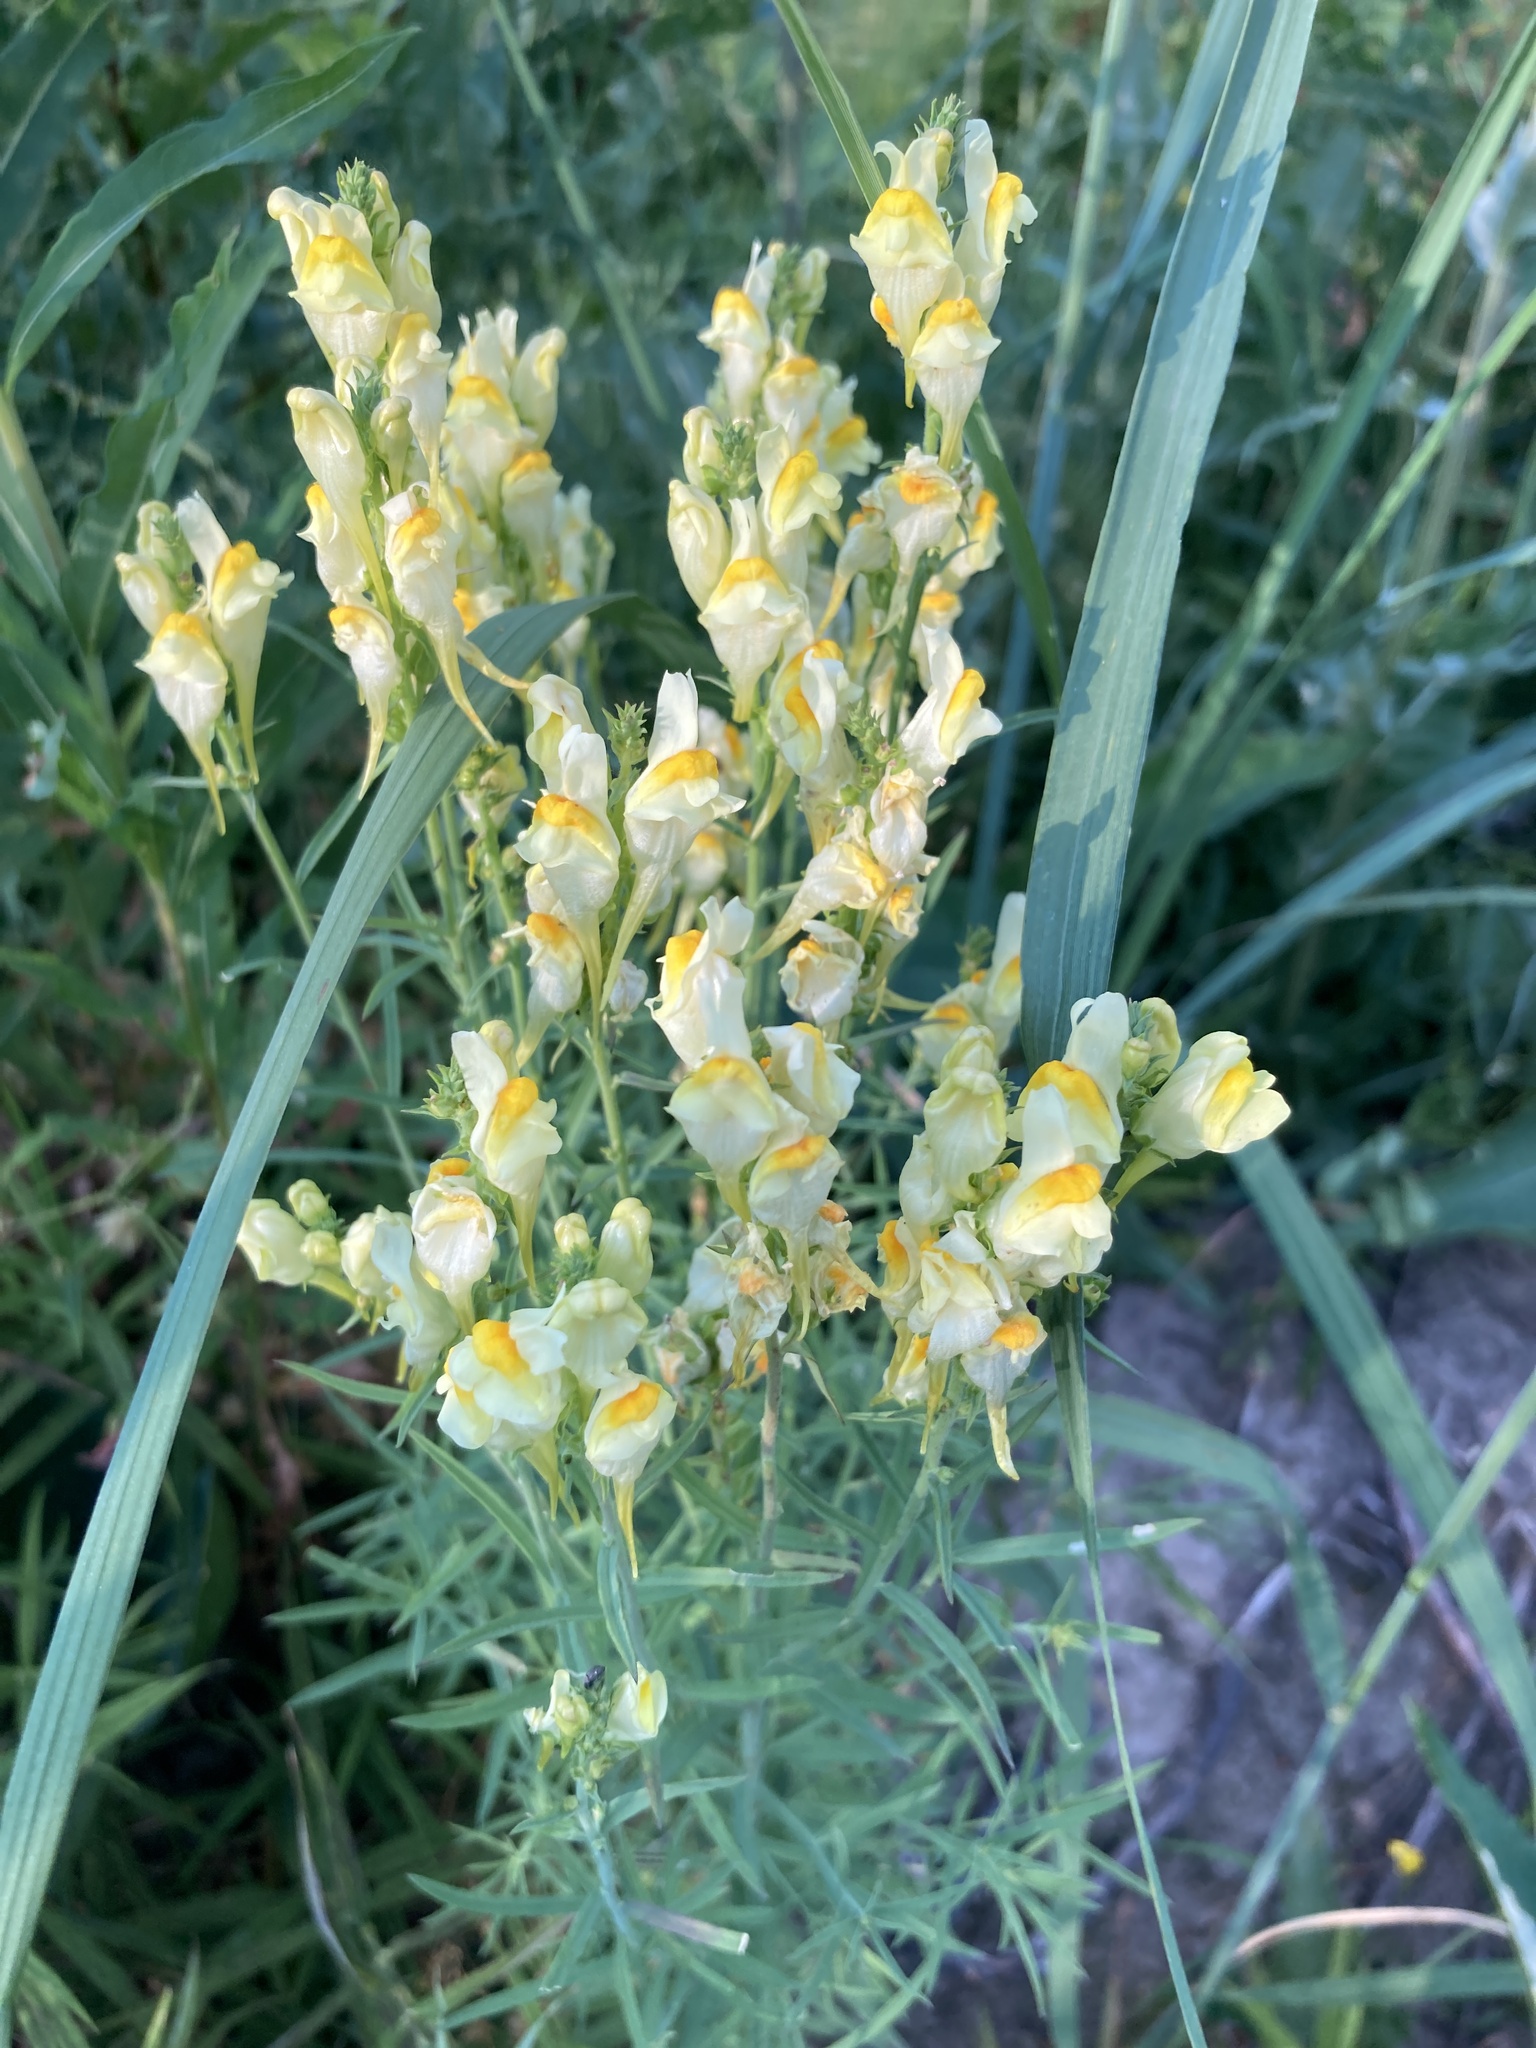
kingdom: Plantae
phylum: Tracheophyta
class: Magnoliopsida
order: Lamiales
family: Plantaginaceae
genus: Linaria
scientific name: Linaria vulgaris
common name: Butter and eggs
